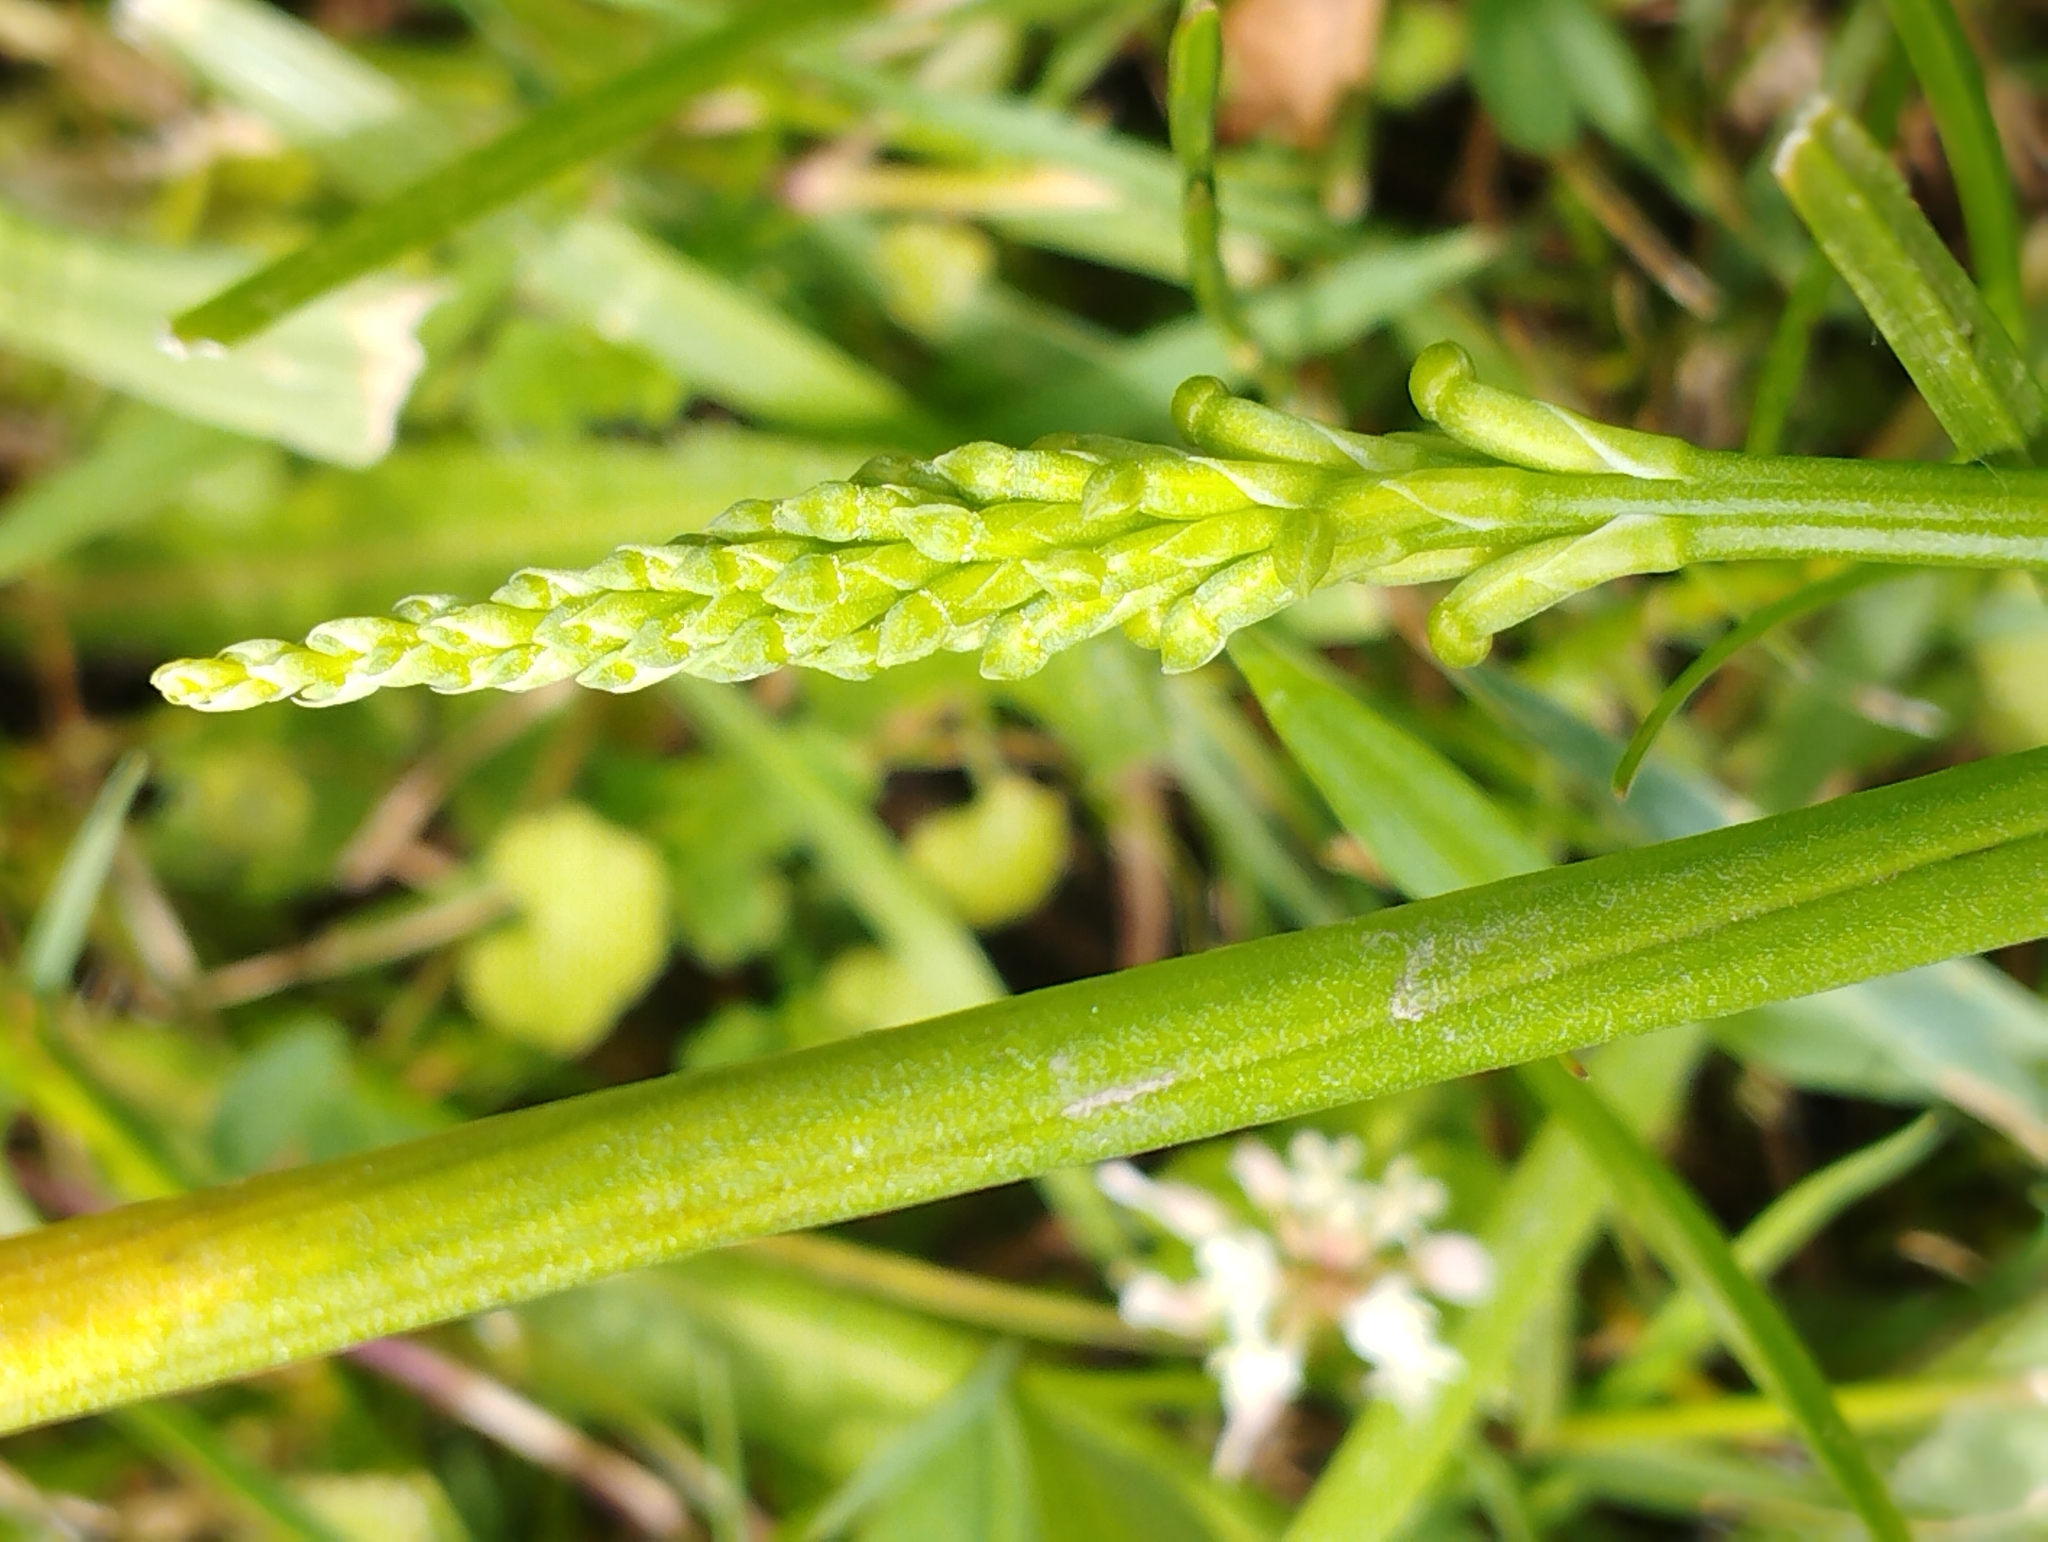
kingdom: Plantae
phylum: Tracheophyta
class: Liliopsida
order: Asparagales
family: Orchidaceae
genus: Microtis
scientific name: Microtis unifolia
